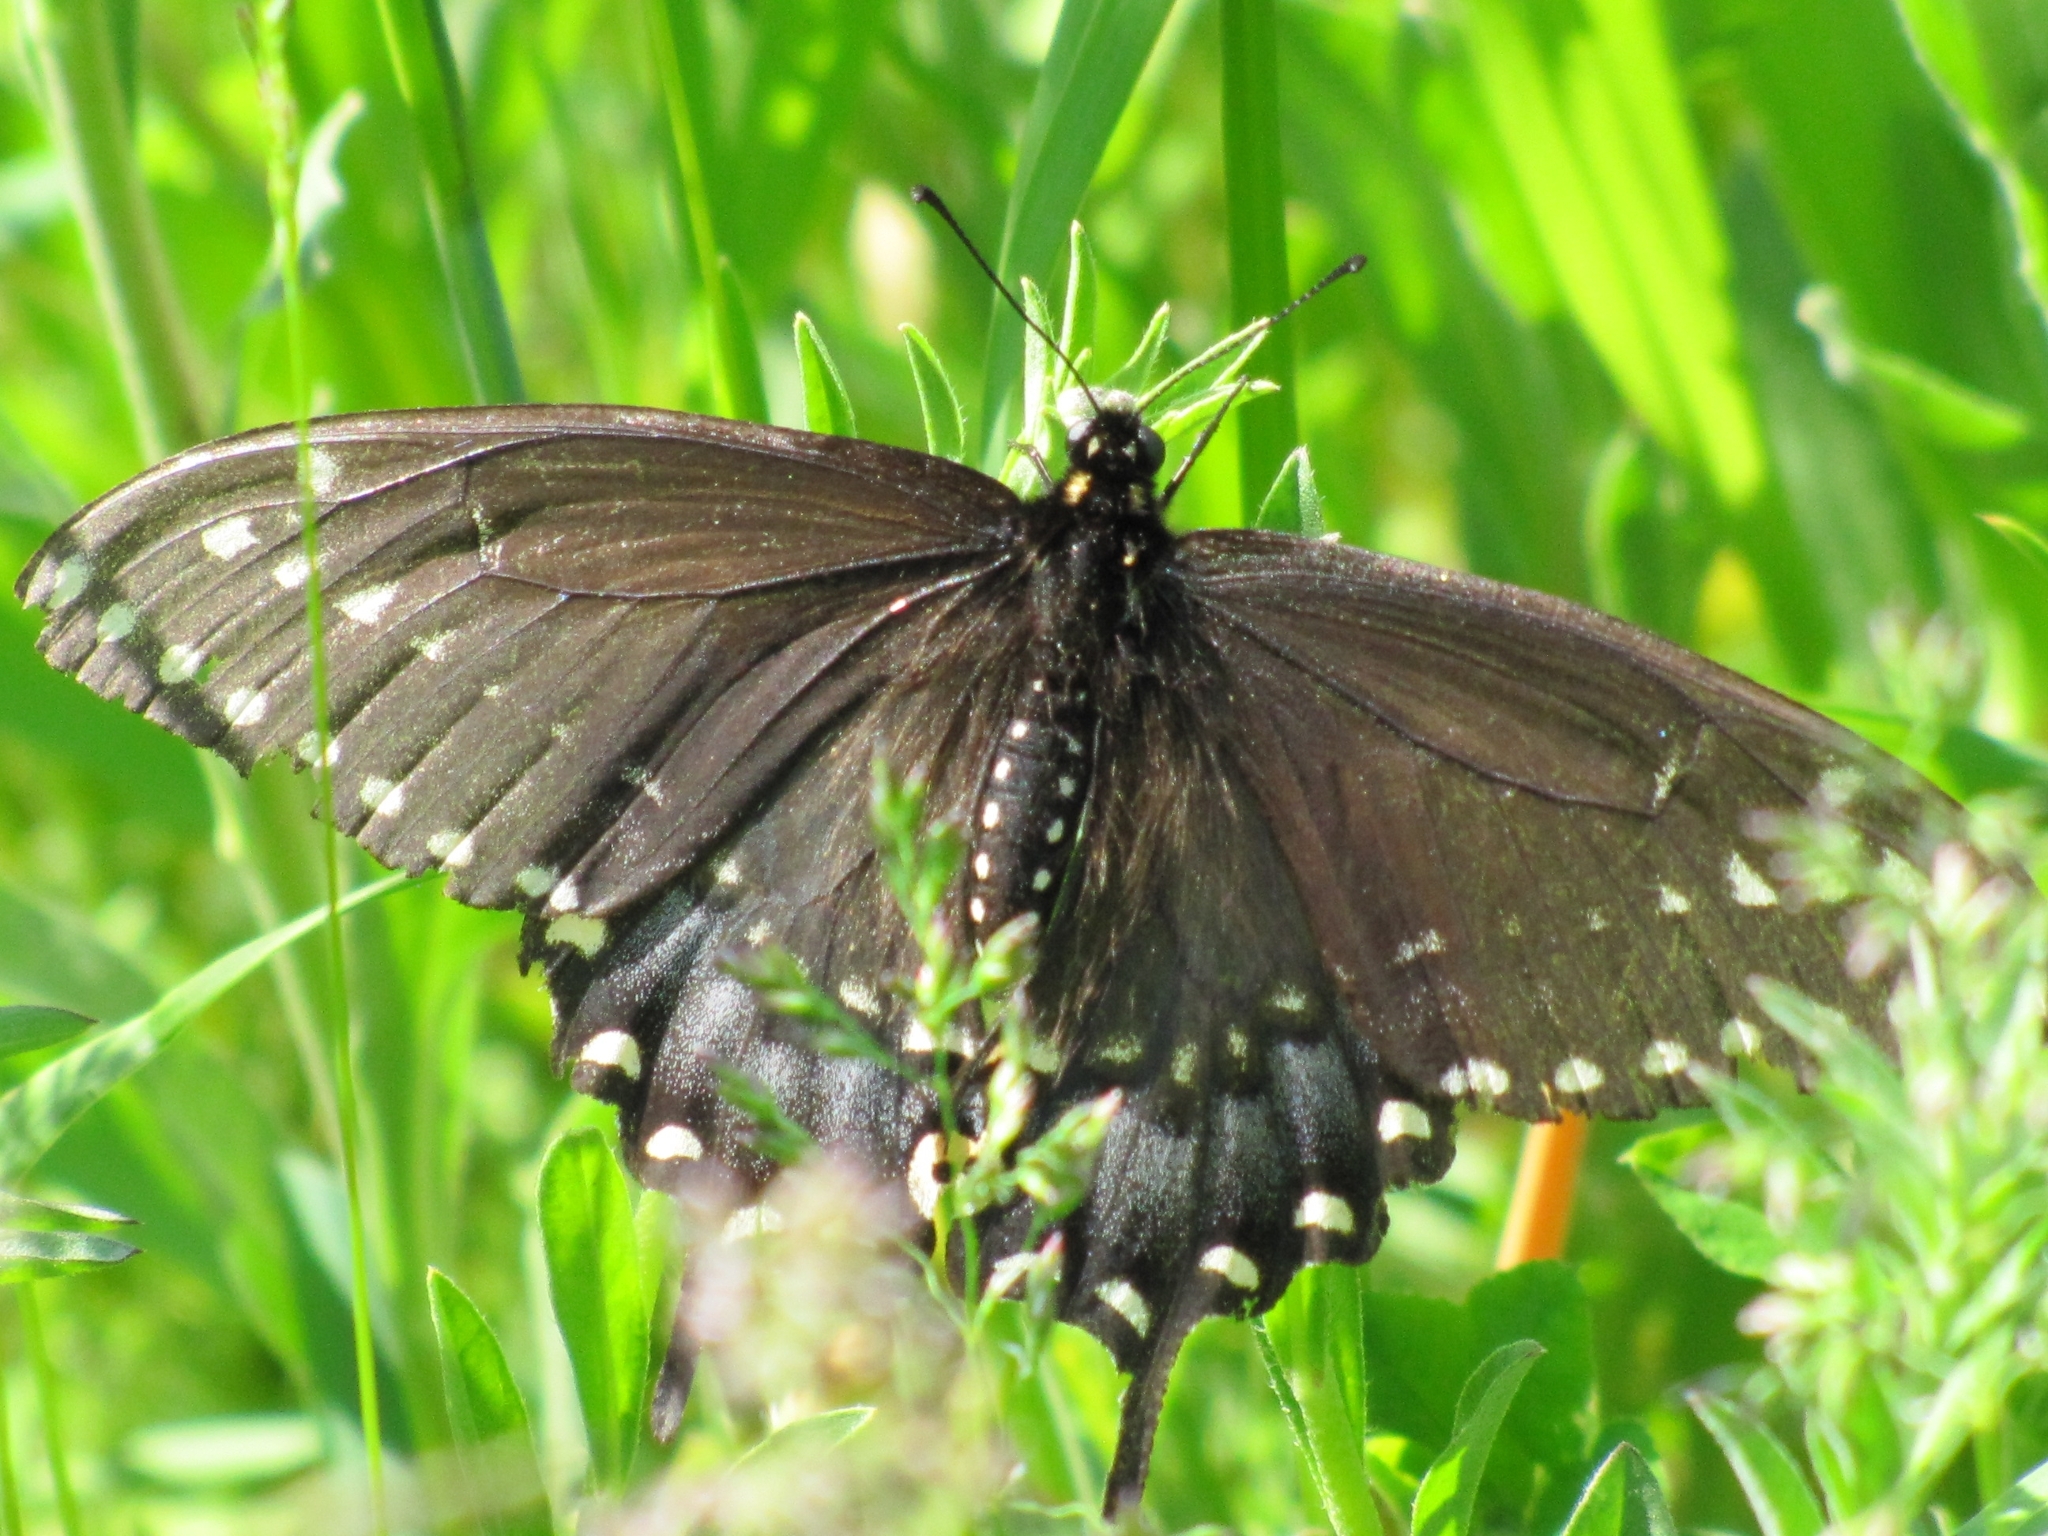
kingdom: Animalia
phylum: Arthropoda
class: Insecta
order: Lepidoptera
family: Papilionidae
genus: Papilio
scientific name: Papilio polyxenes
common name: Black swallowtail
